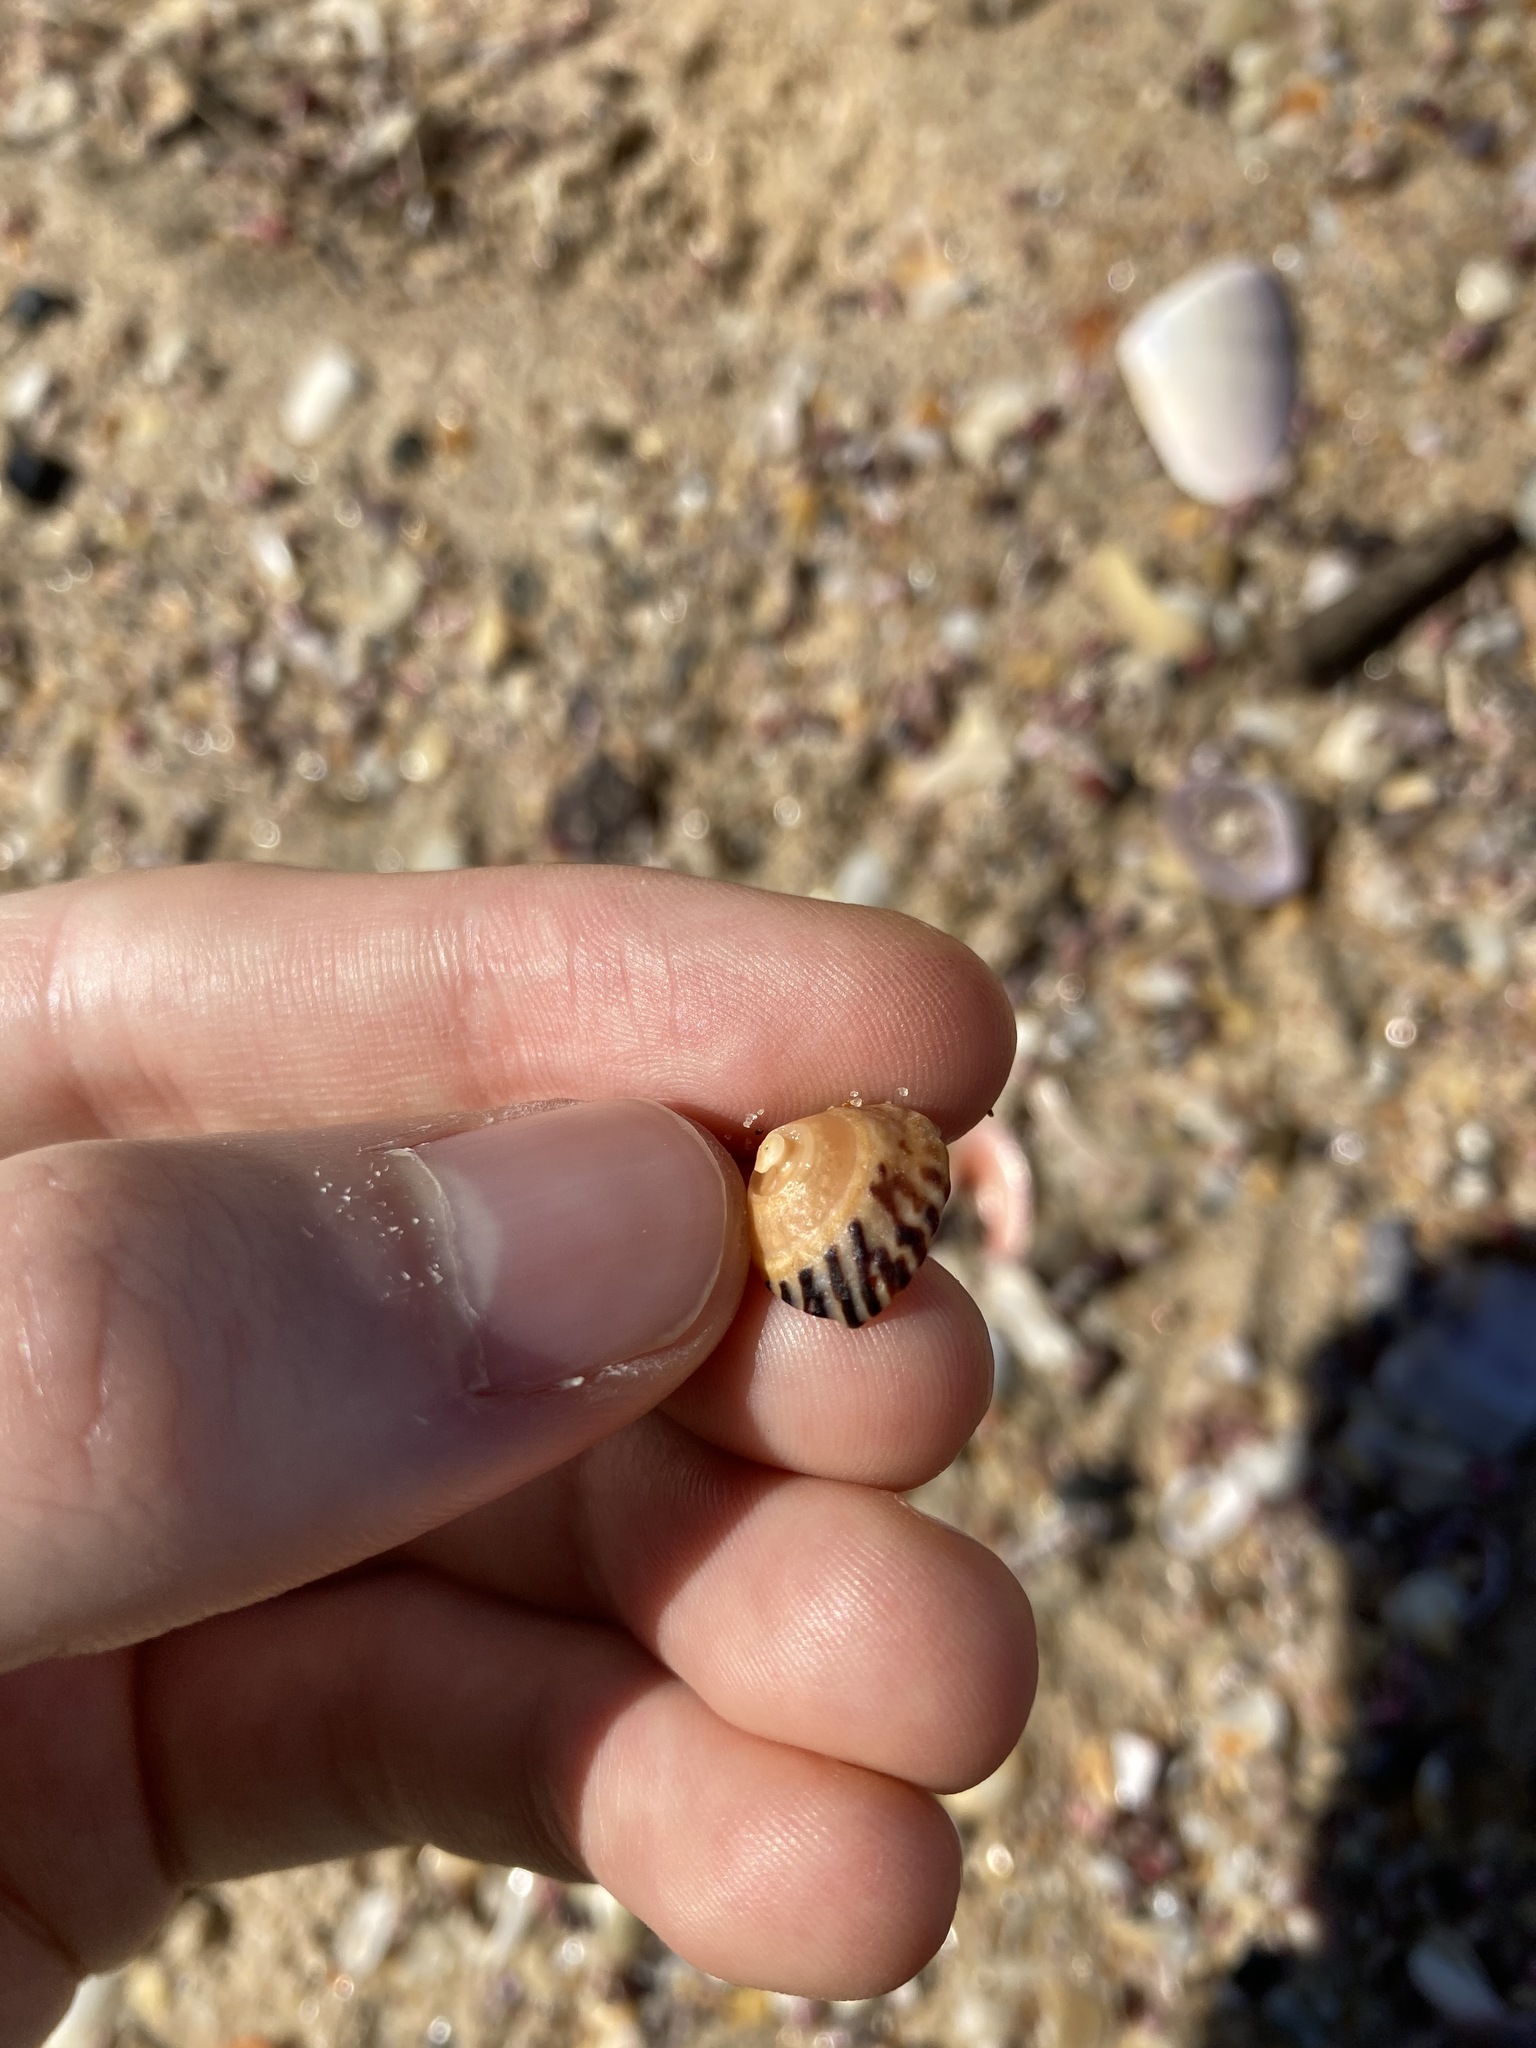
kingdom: Animalia
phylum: Mollusca
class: Gastropoda
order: Littorinimorpha
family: Littorinidae
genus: Bembicium
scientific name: Bembicium nanum
